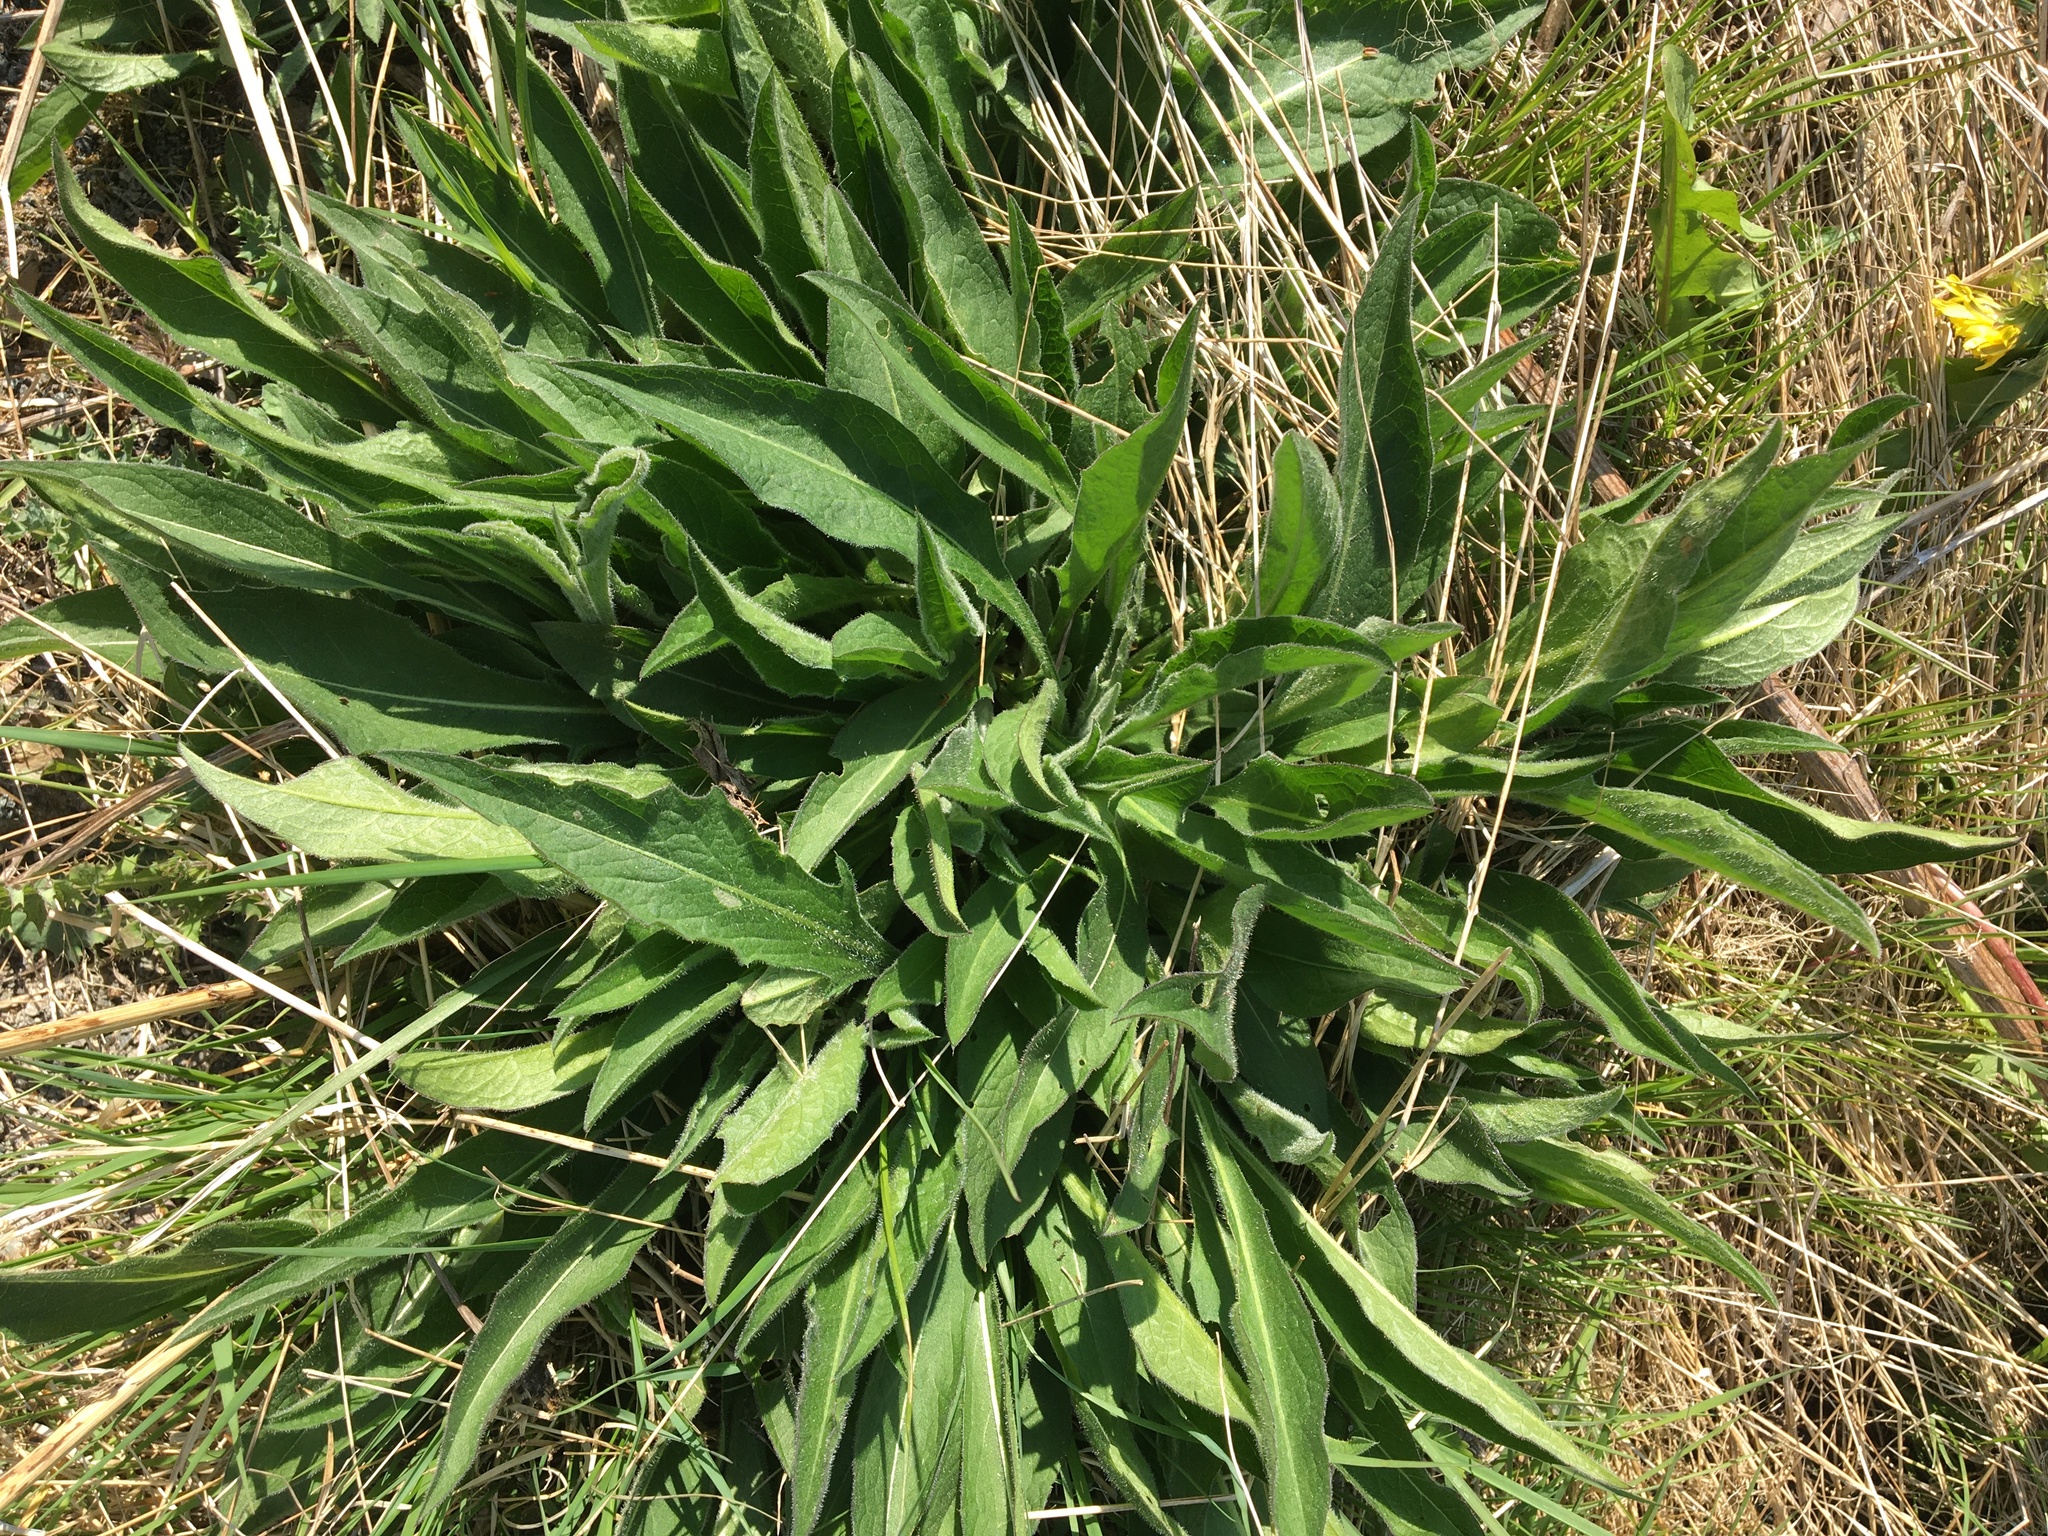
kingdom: Plantae
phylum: Tracheophyta
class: Magnoliopsida
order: Asterales
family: Asteraceae
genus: Centaurea
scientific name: Centaurea nigra
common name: Lesser knapweed
